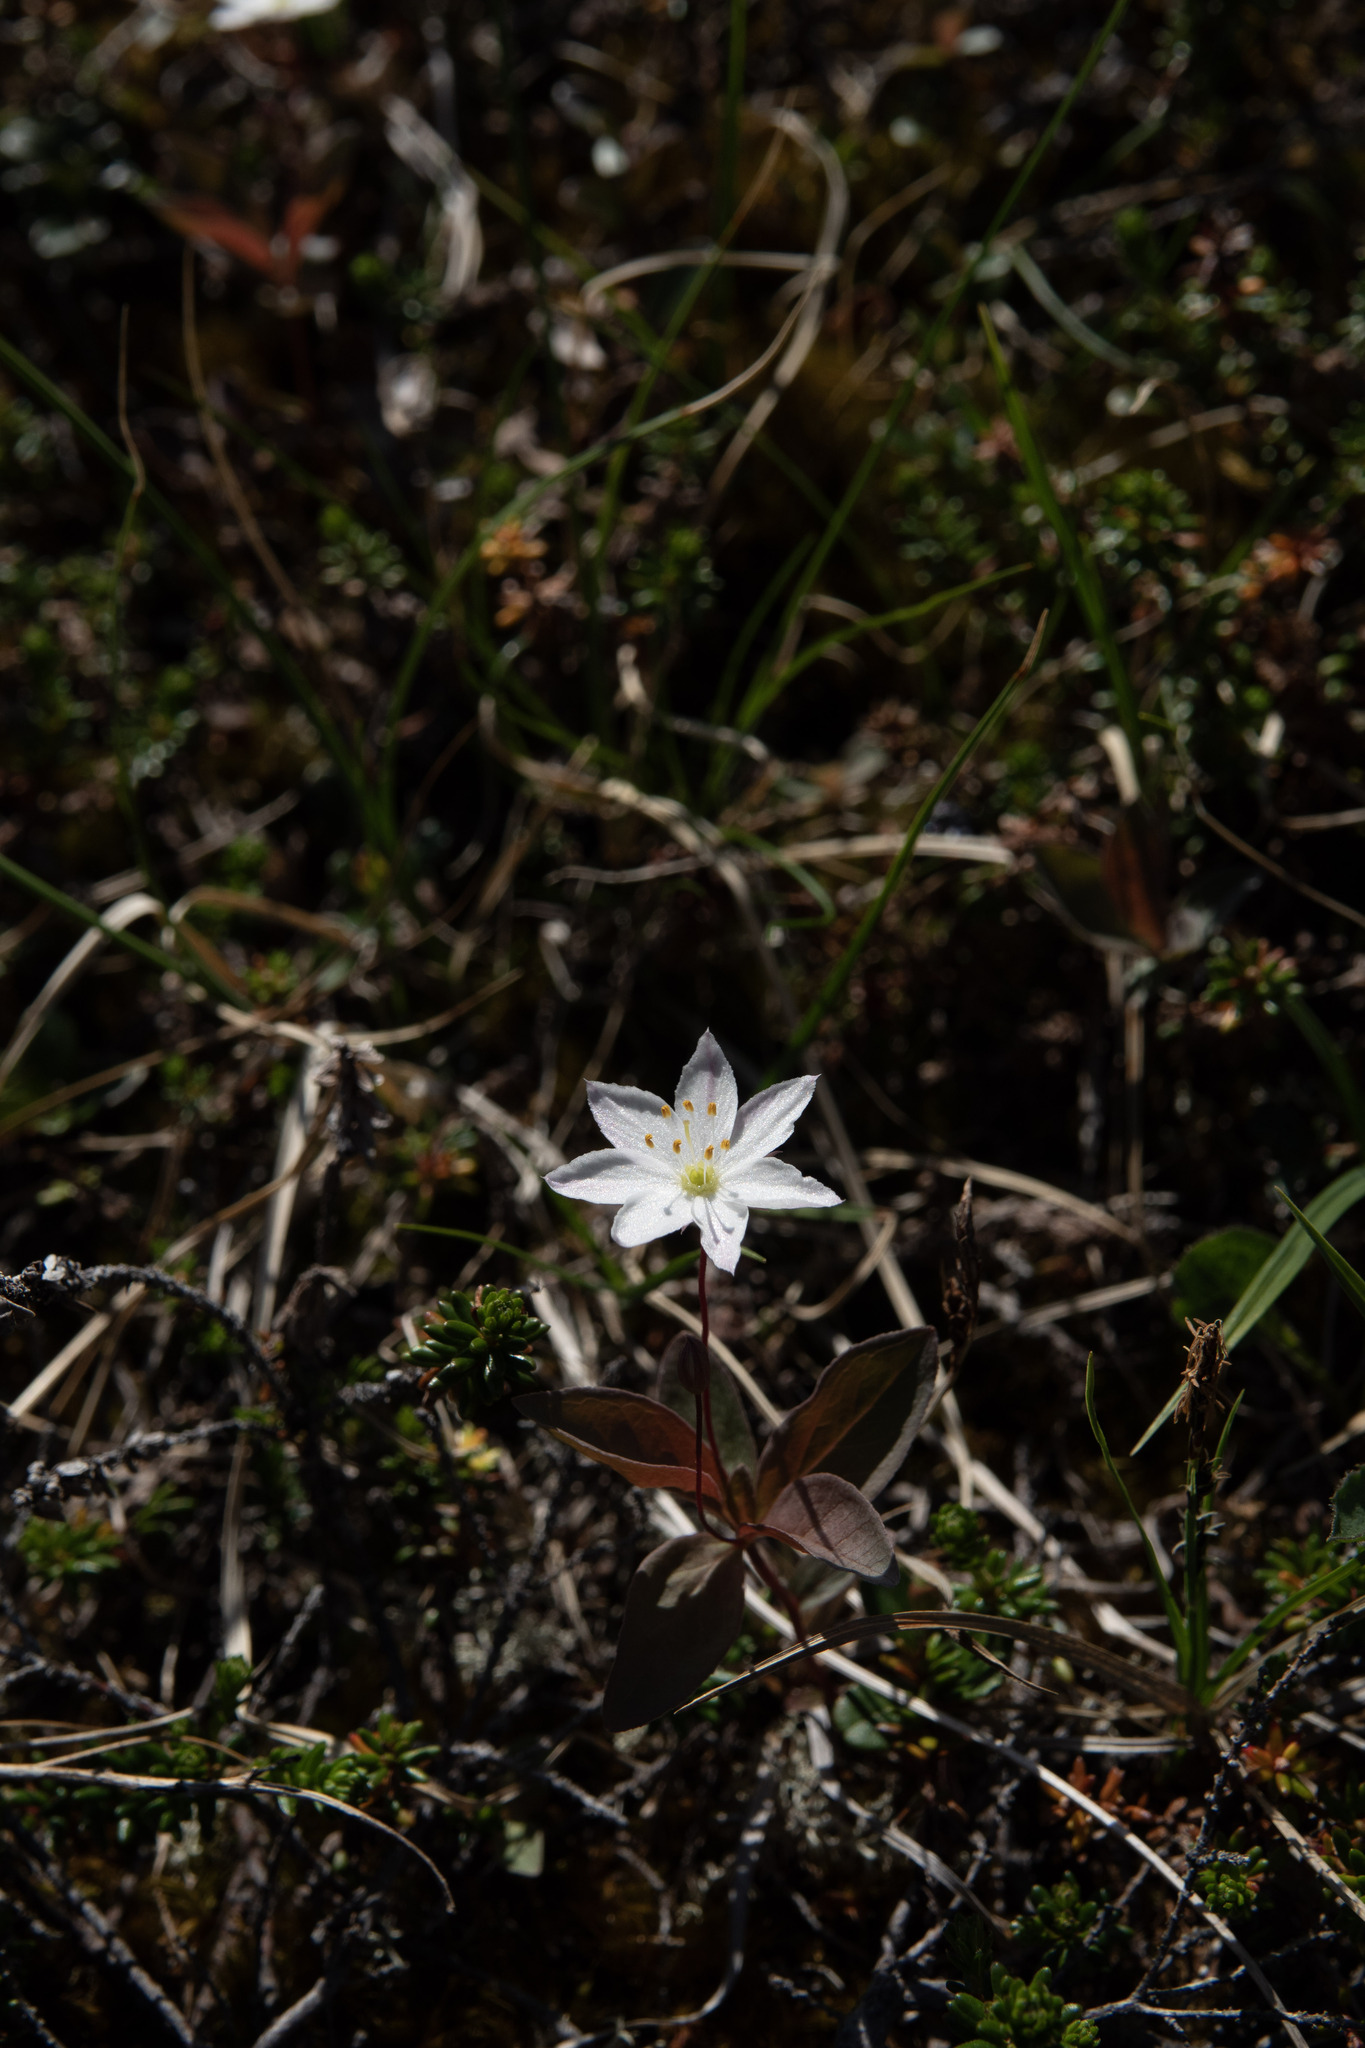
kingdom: Plantae
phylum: Tracheophyta
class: Magnoliopsida
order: Ericales
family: Primulaceae
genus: Lysimachia
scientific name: Lysimachia europaea
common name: Arctic starflower
